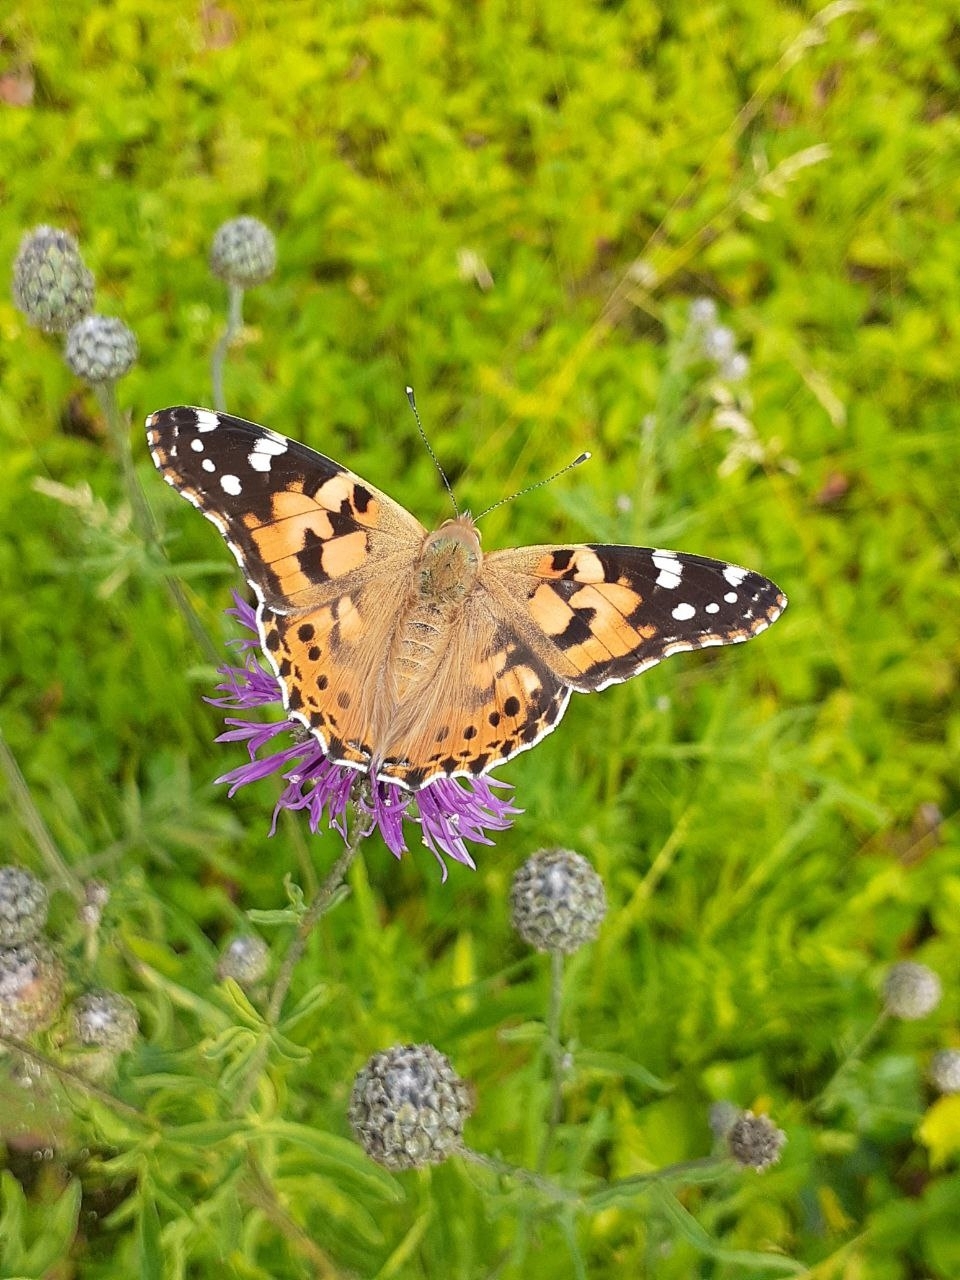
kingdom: Animalia
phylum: Arthropoda
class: Insecta
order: Lepidoptera
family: Nymphalidae
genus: Vanessa
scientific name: Vanessa cardui
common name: Painted lady
